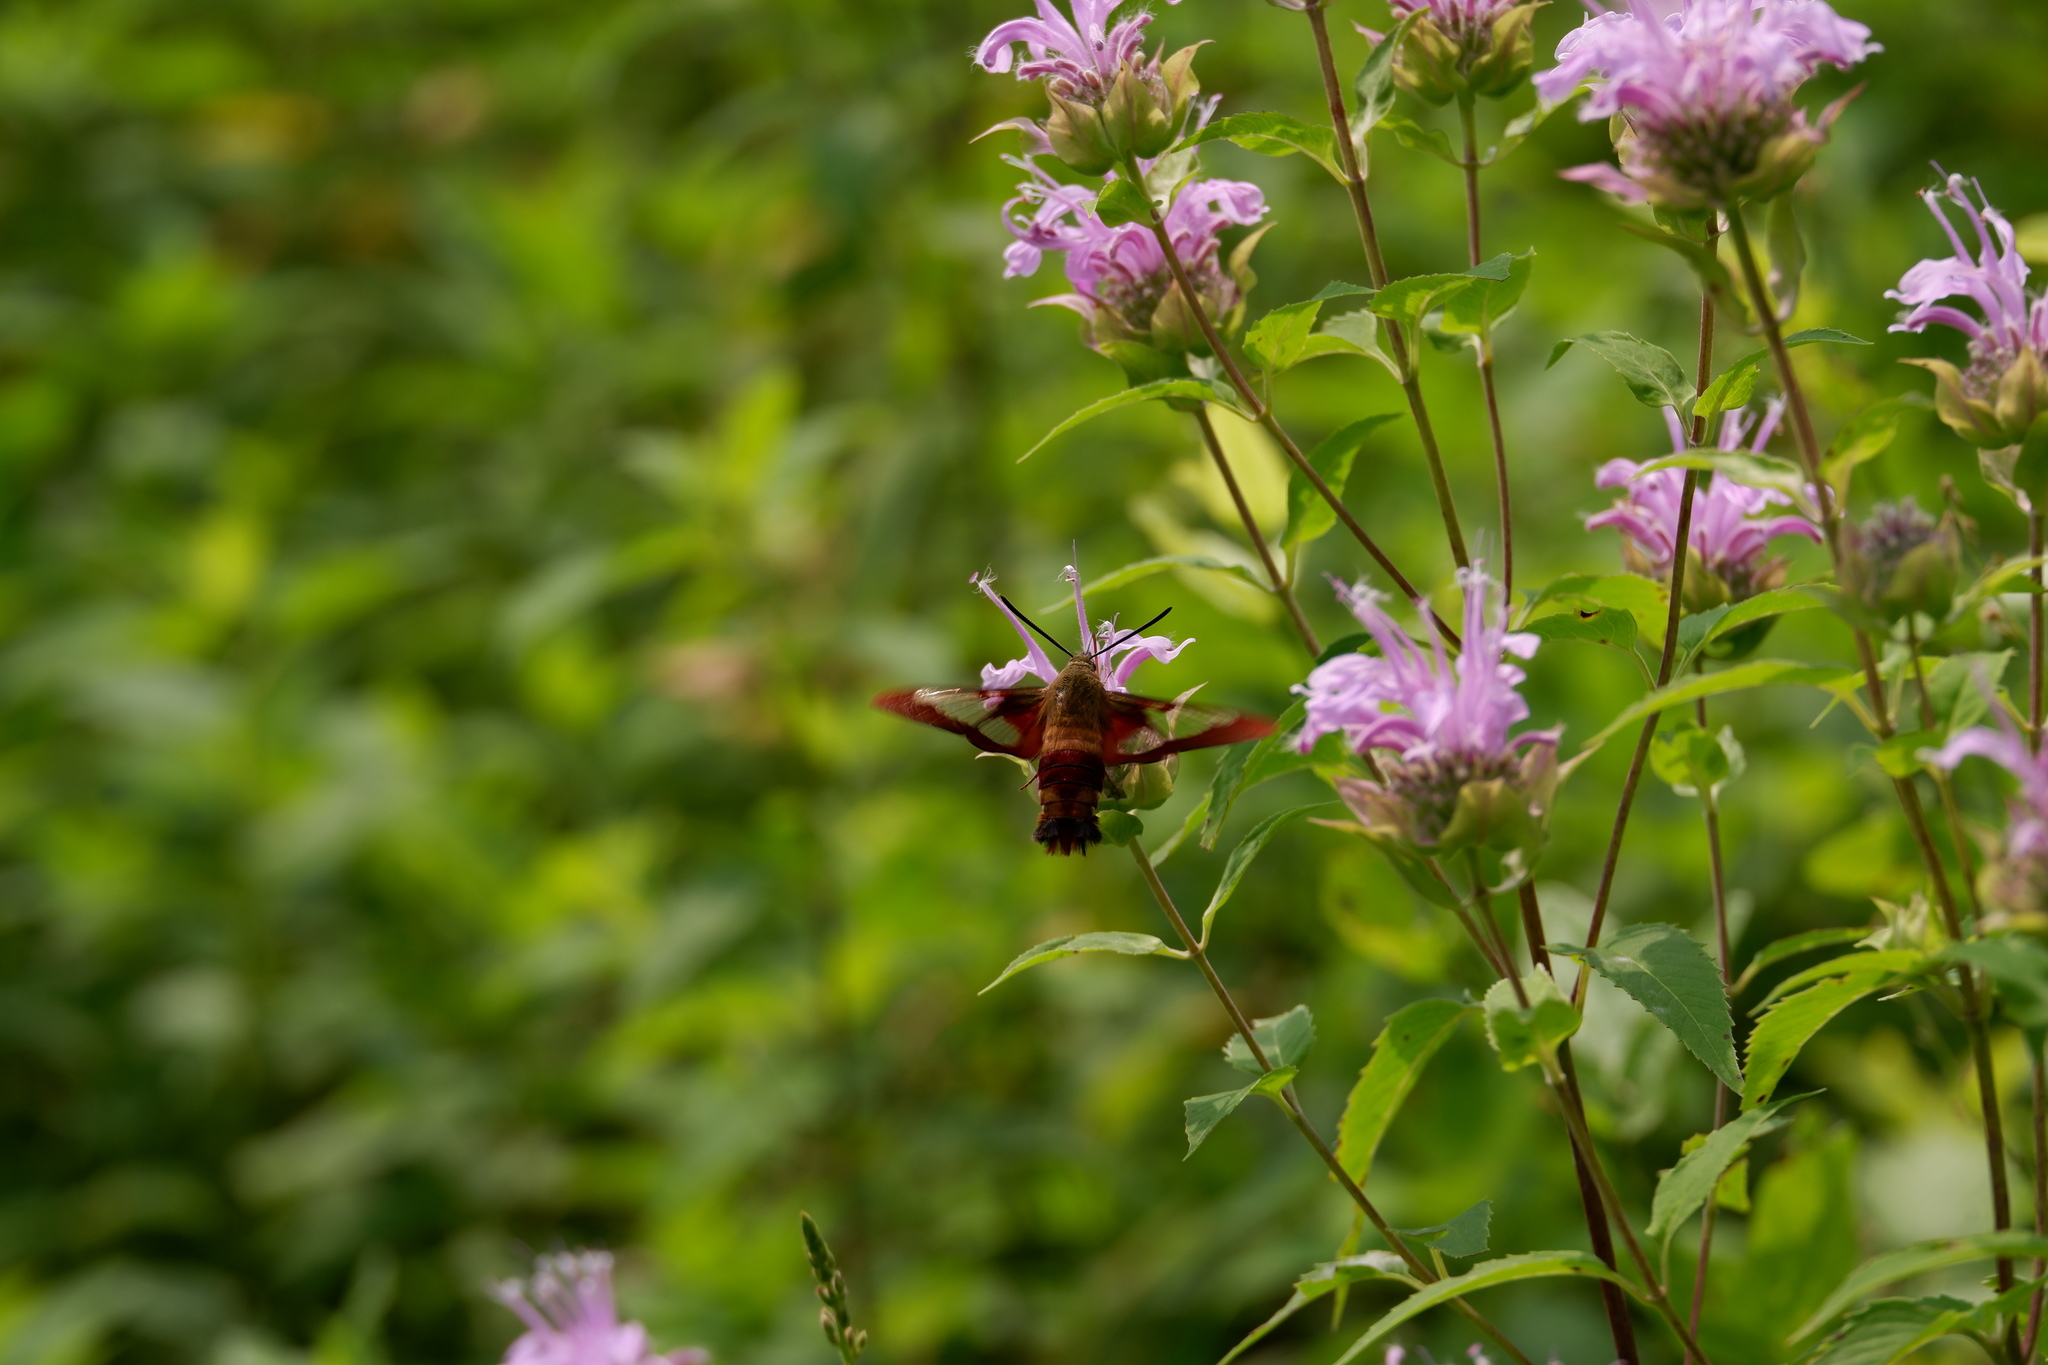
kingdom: Animalia
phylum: Arthropoda
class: Insecta
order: Lepidoptera
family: Sphingidae
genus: Hemaris
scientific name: Hemaris thysbe
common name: Common clear-wing
